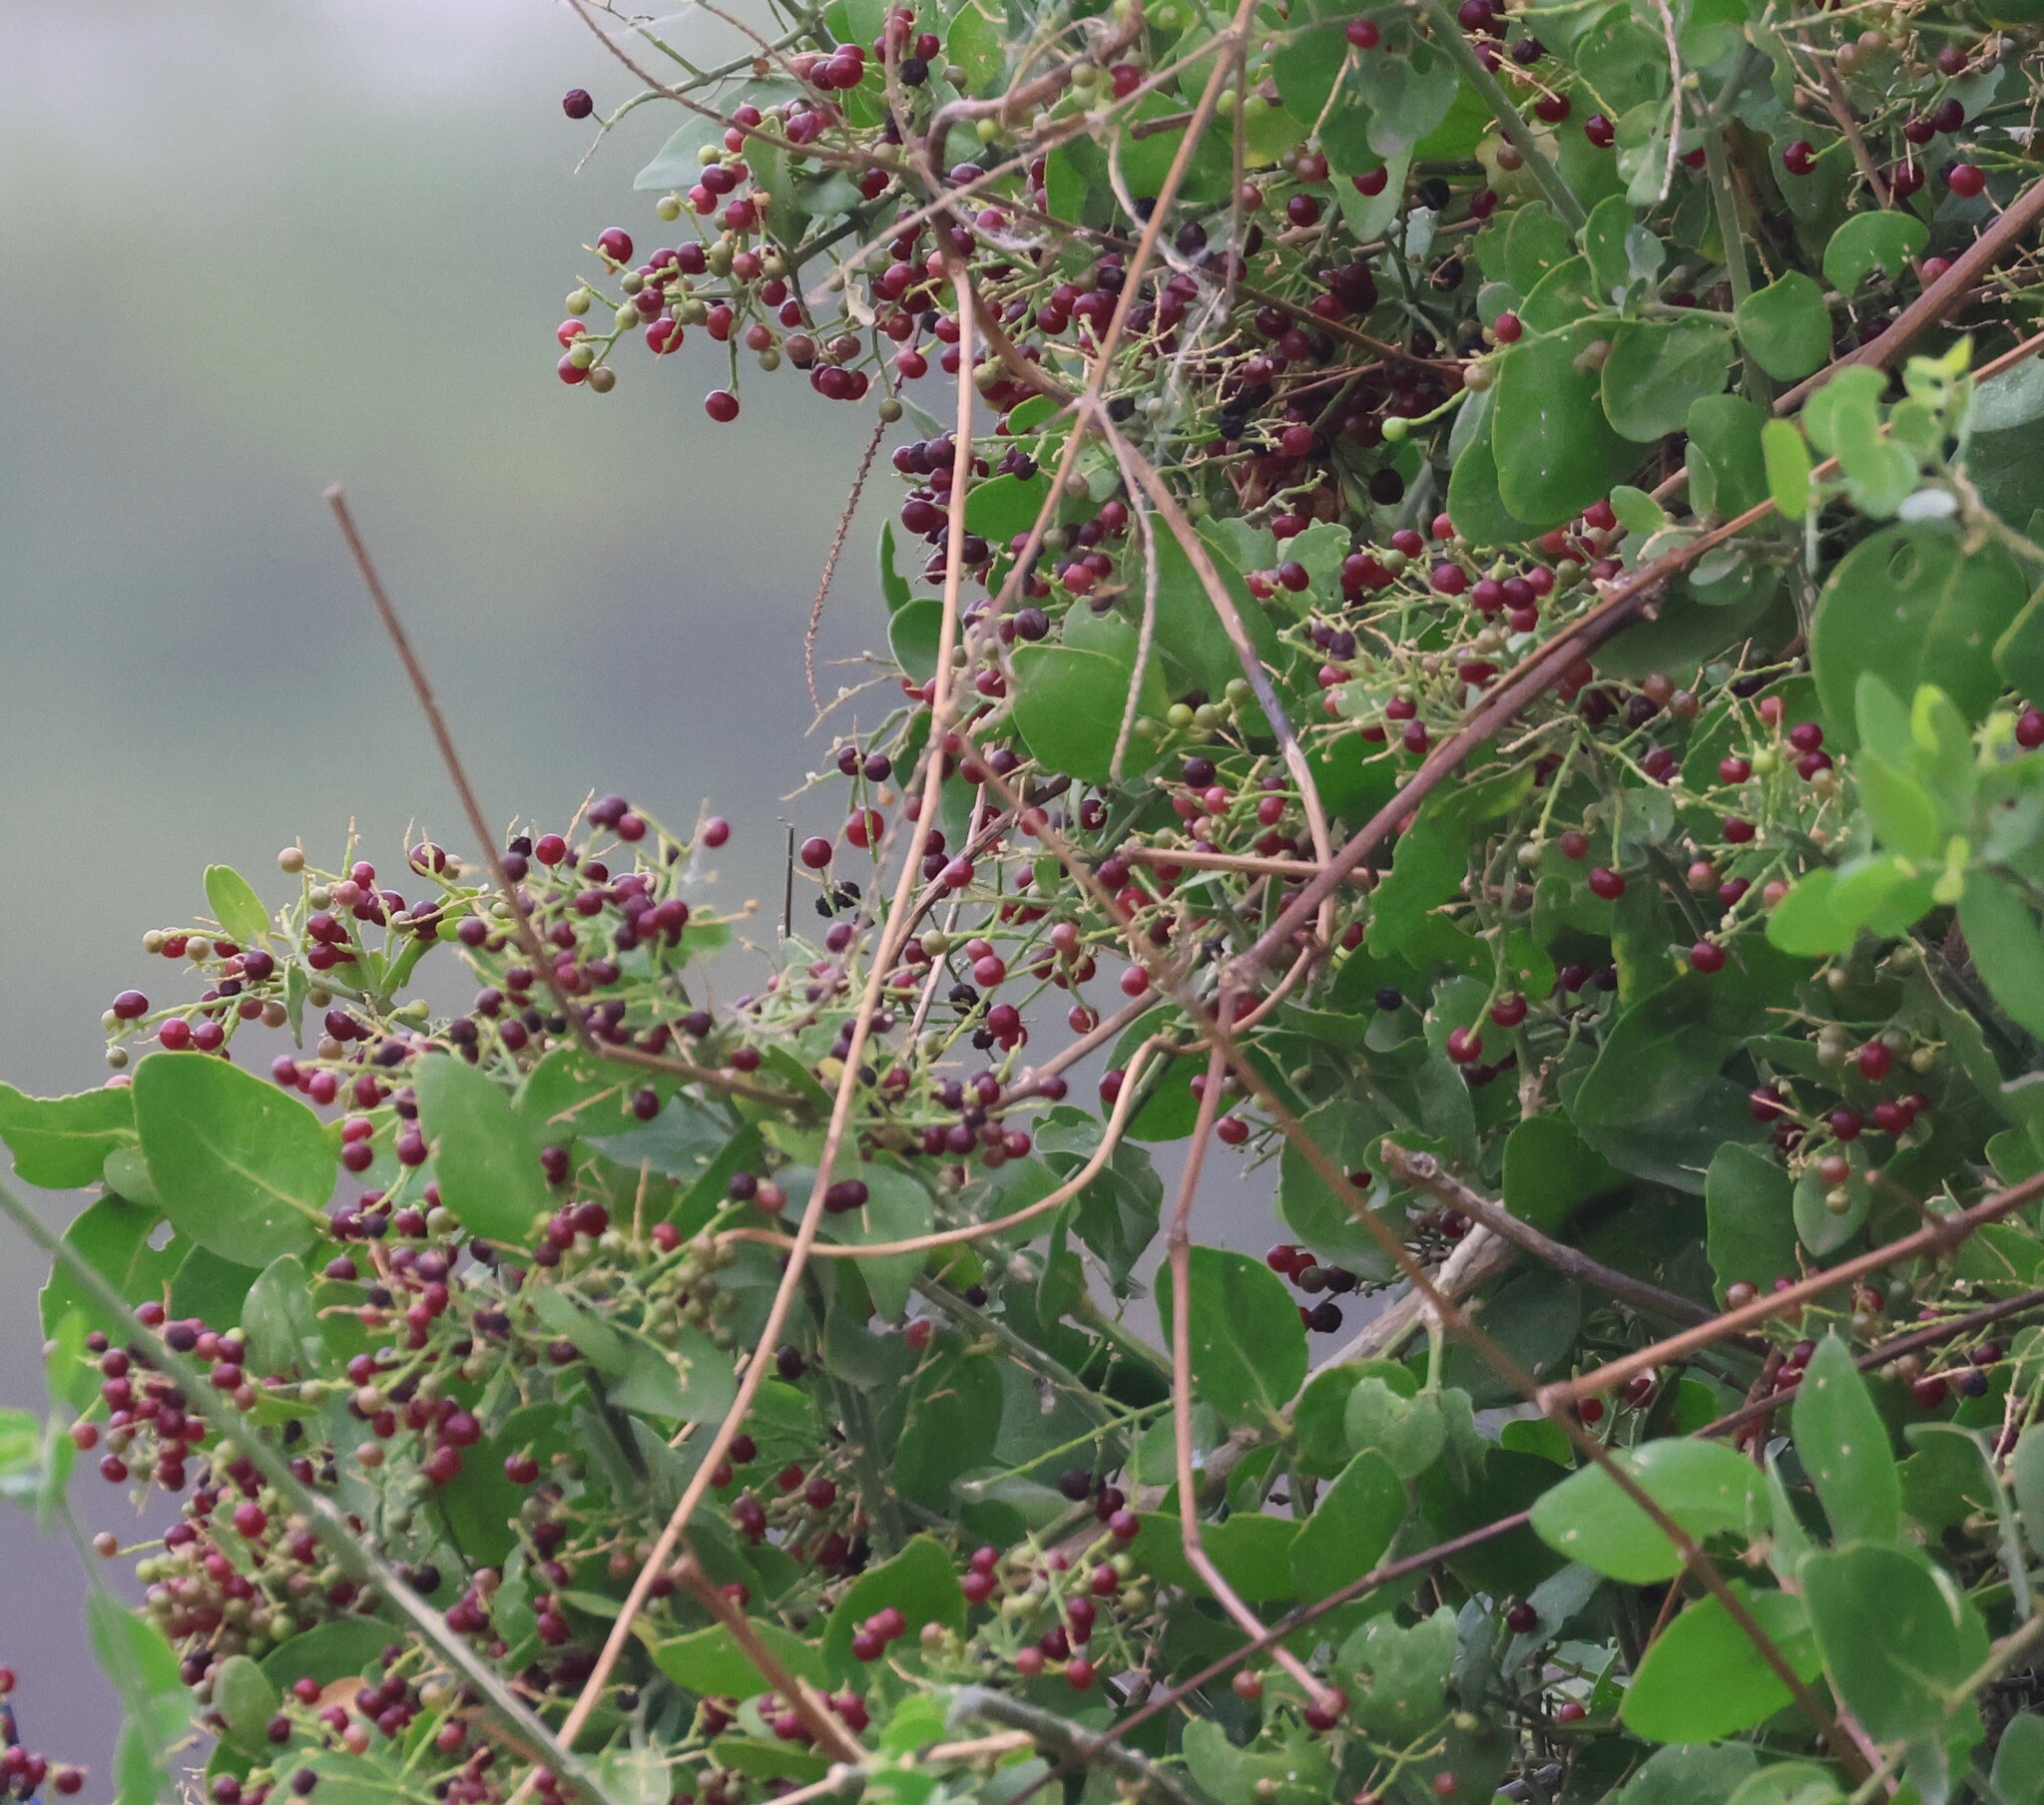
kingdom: Plantae
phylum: Tracheophyta
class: Magnoliopsida
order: Brassicales
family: Salvadoraceae
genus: Salvadora
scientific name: Salvadora persica
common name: Toothbrushtree
